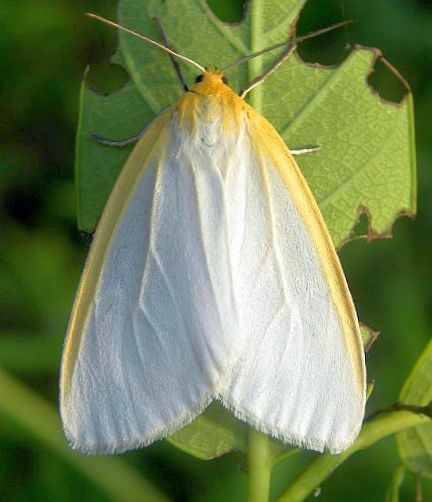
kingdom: Animalia
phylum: Arthropoda
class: Insecta
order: Lepidoptera
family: Erebidae
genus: Cycnia
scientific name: Cycnia tenera
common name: Delicate cycnia moth
